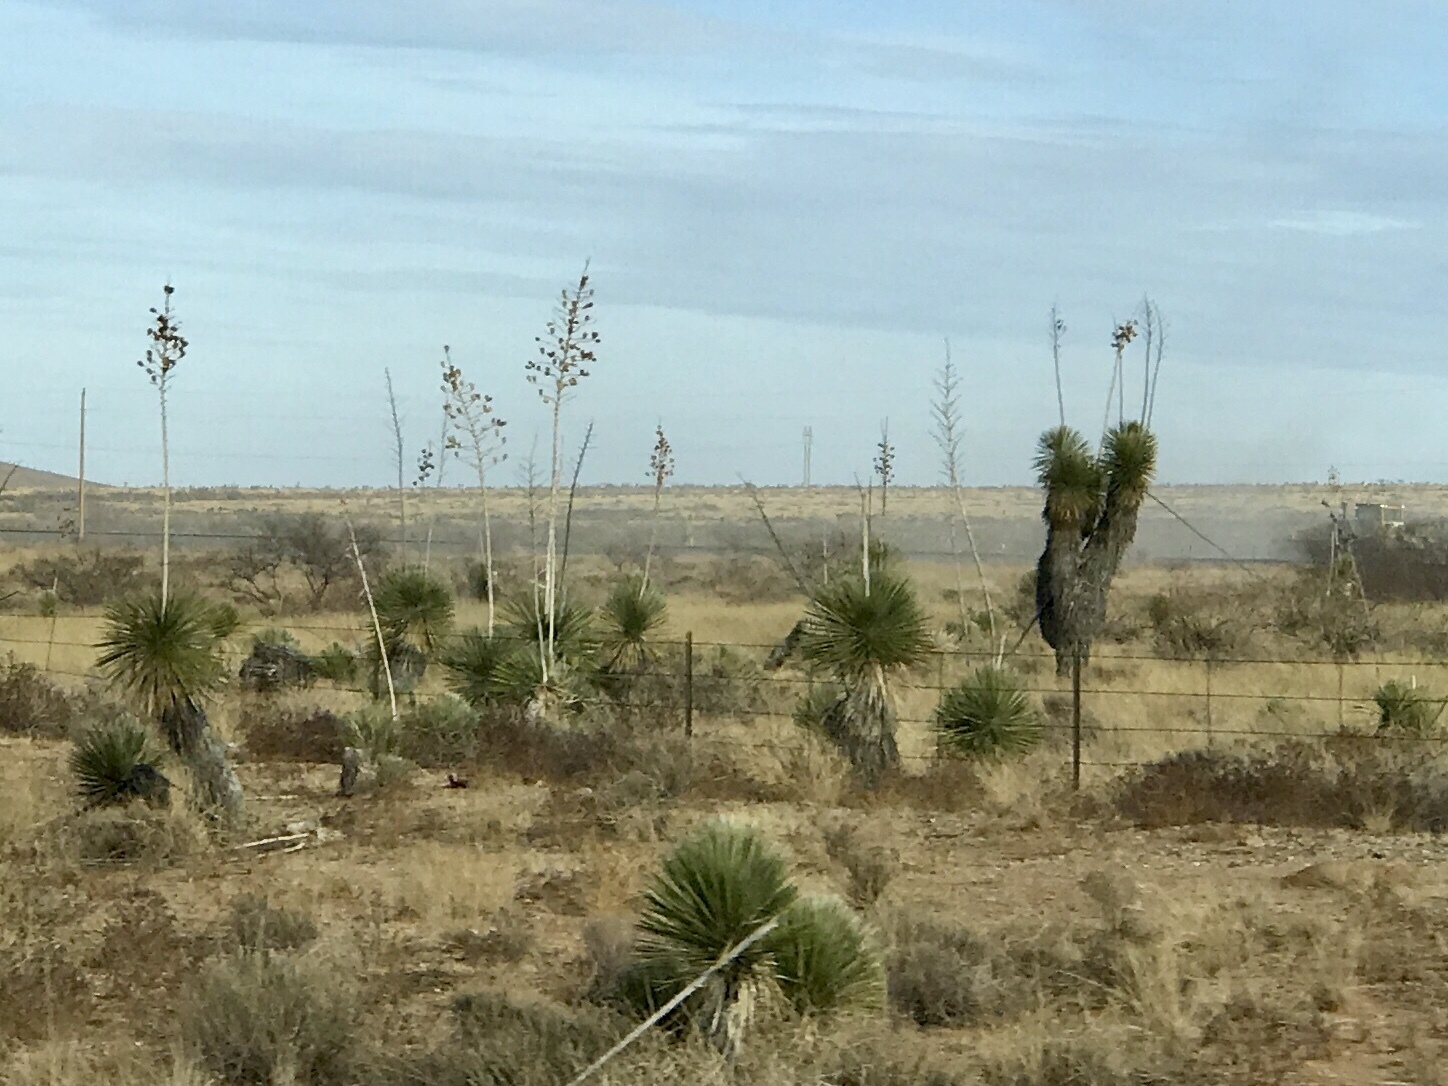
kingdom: Plantae
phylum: Tracheophyta
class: Liliopsida
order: Asparagales
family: Asparagaceae
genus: Yucca
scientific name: Yucca elata
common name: Palmella
